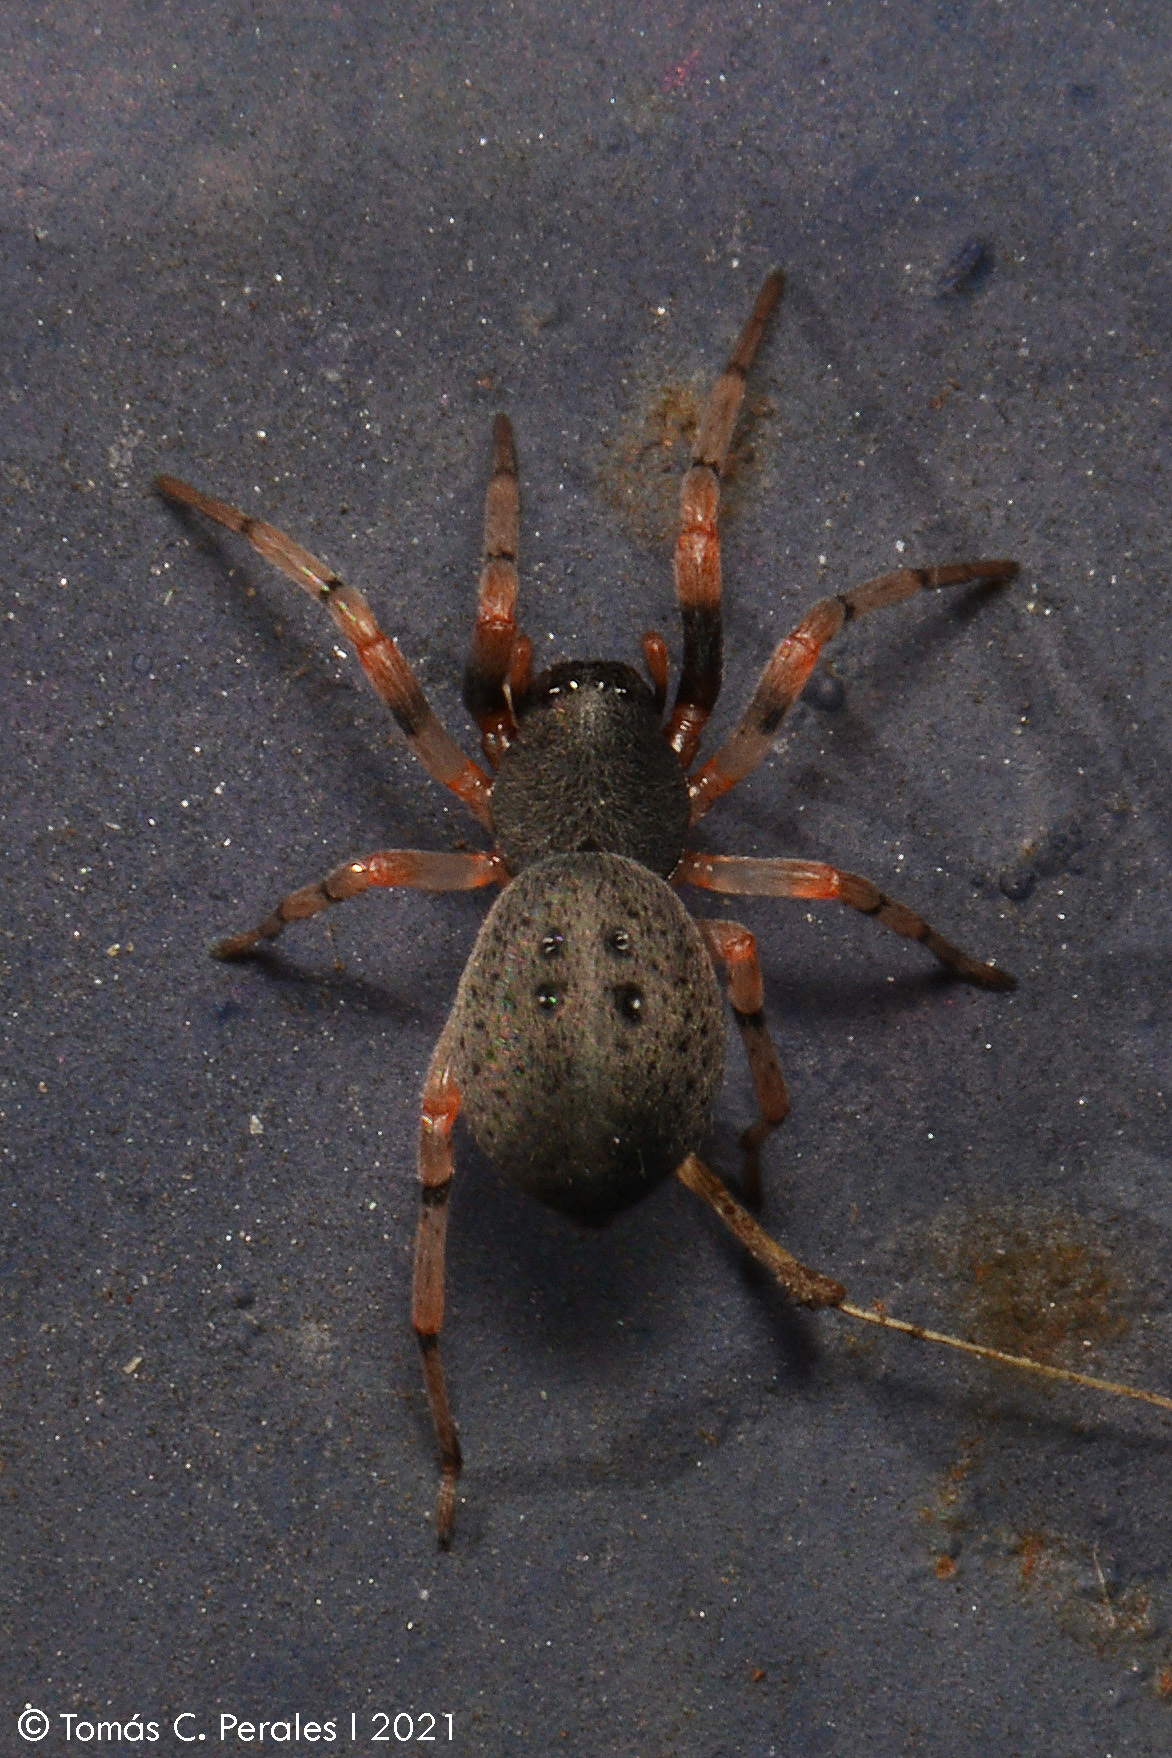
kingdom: Animalia
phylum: Arthropoda
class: Arachnida
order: Araneae
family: Trachelidae
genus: Trachelopachys
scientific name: Trachelopachys
